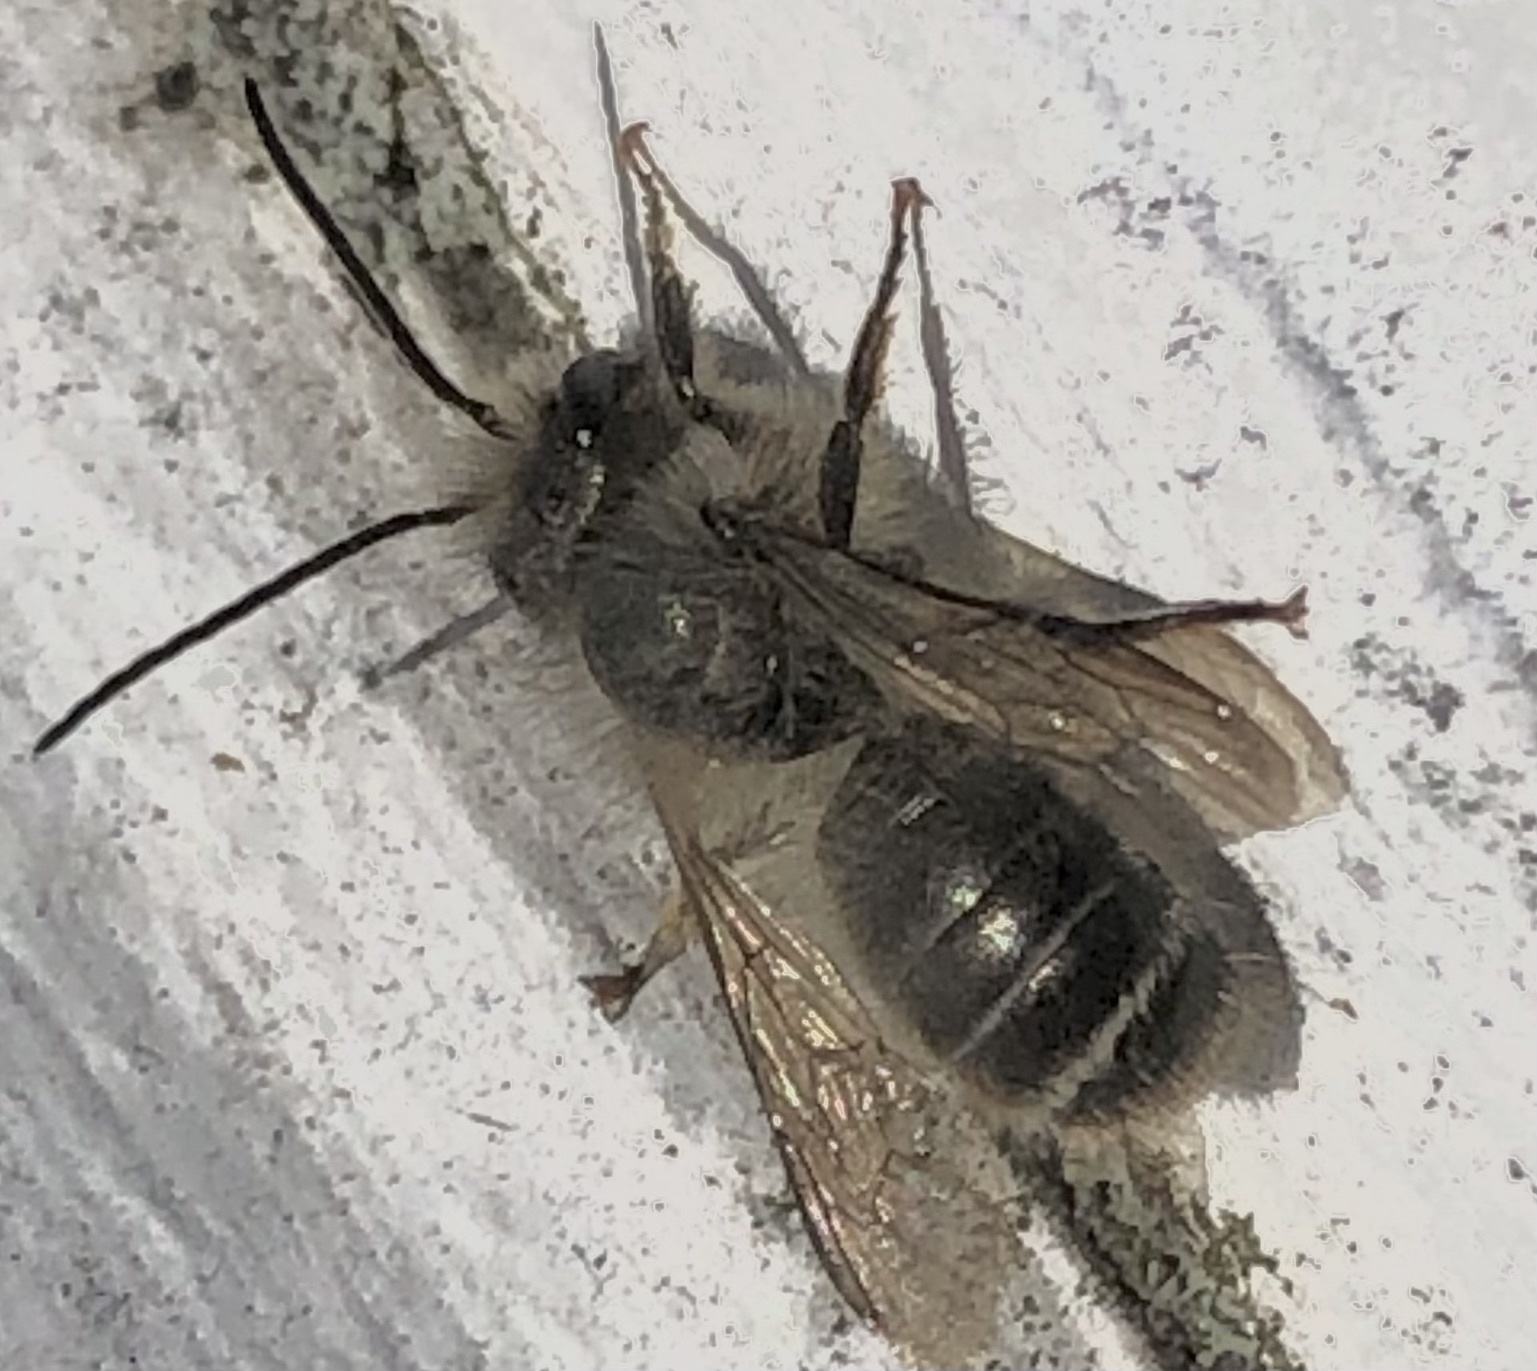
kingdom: Animalia
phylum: Arthropoda
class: Insecta
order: Hymenoptera
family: Megachilidae
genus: Osmia
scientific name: Osmia cornifrons
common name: Horn-faced bee
